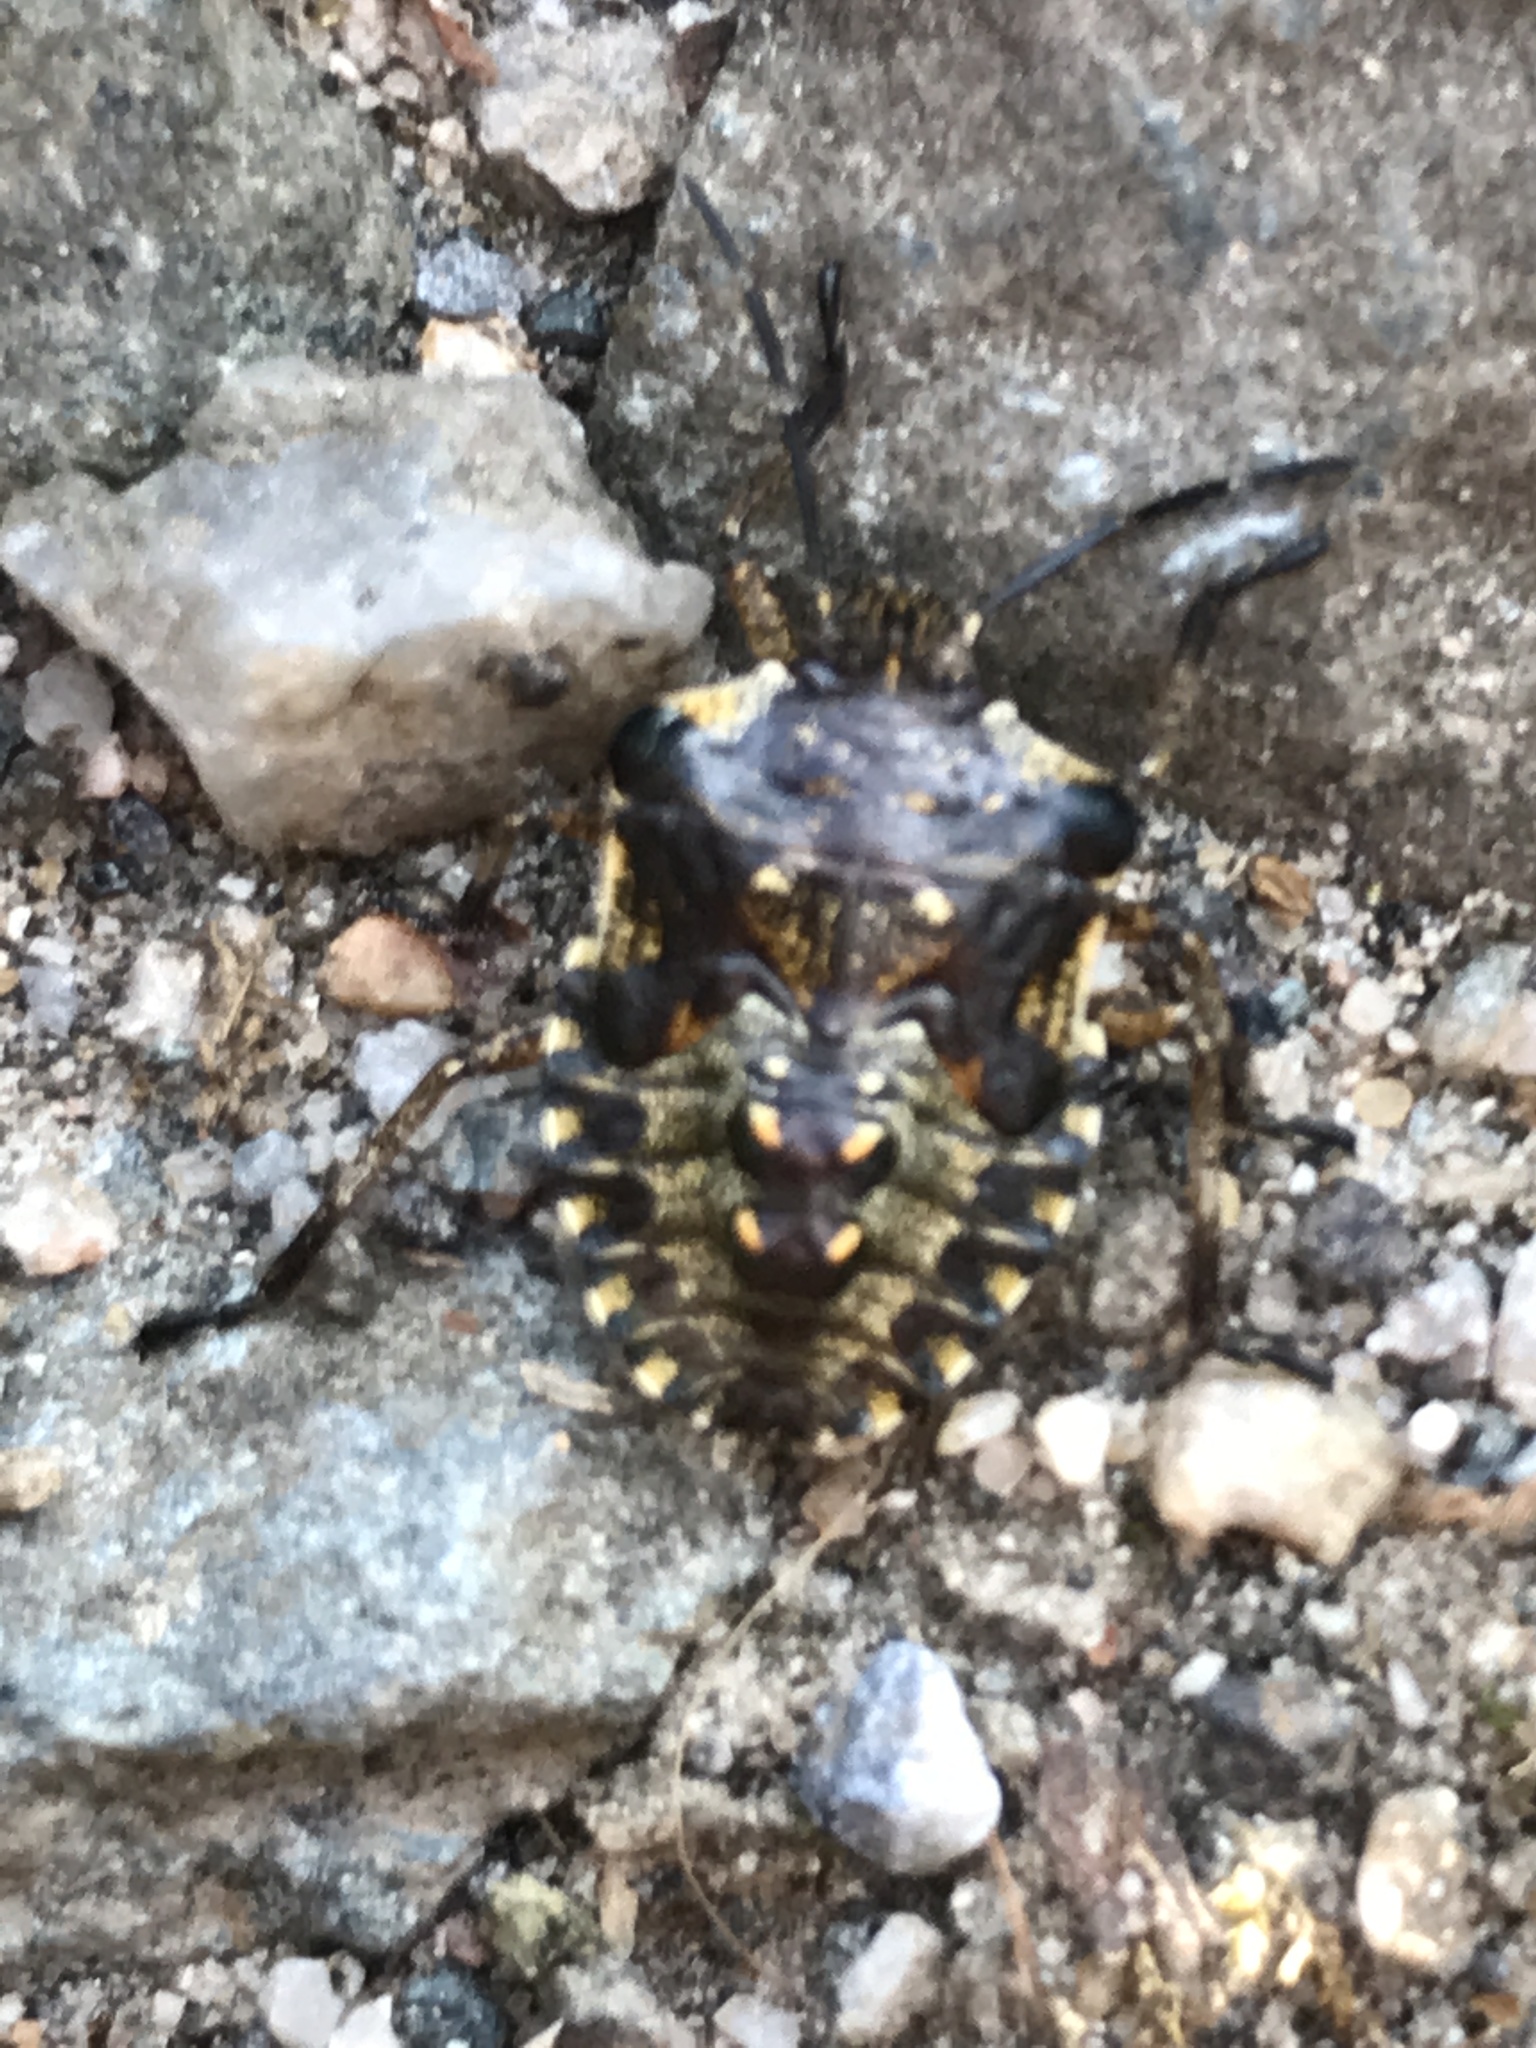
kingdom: Animalia
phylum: Arthropoda
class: Insecta
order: Hemiptera
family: Pentatomidae
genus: Pentatoma
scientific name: Pentatoma rufipes
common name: Forest bug
